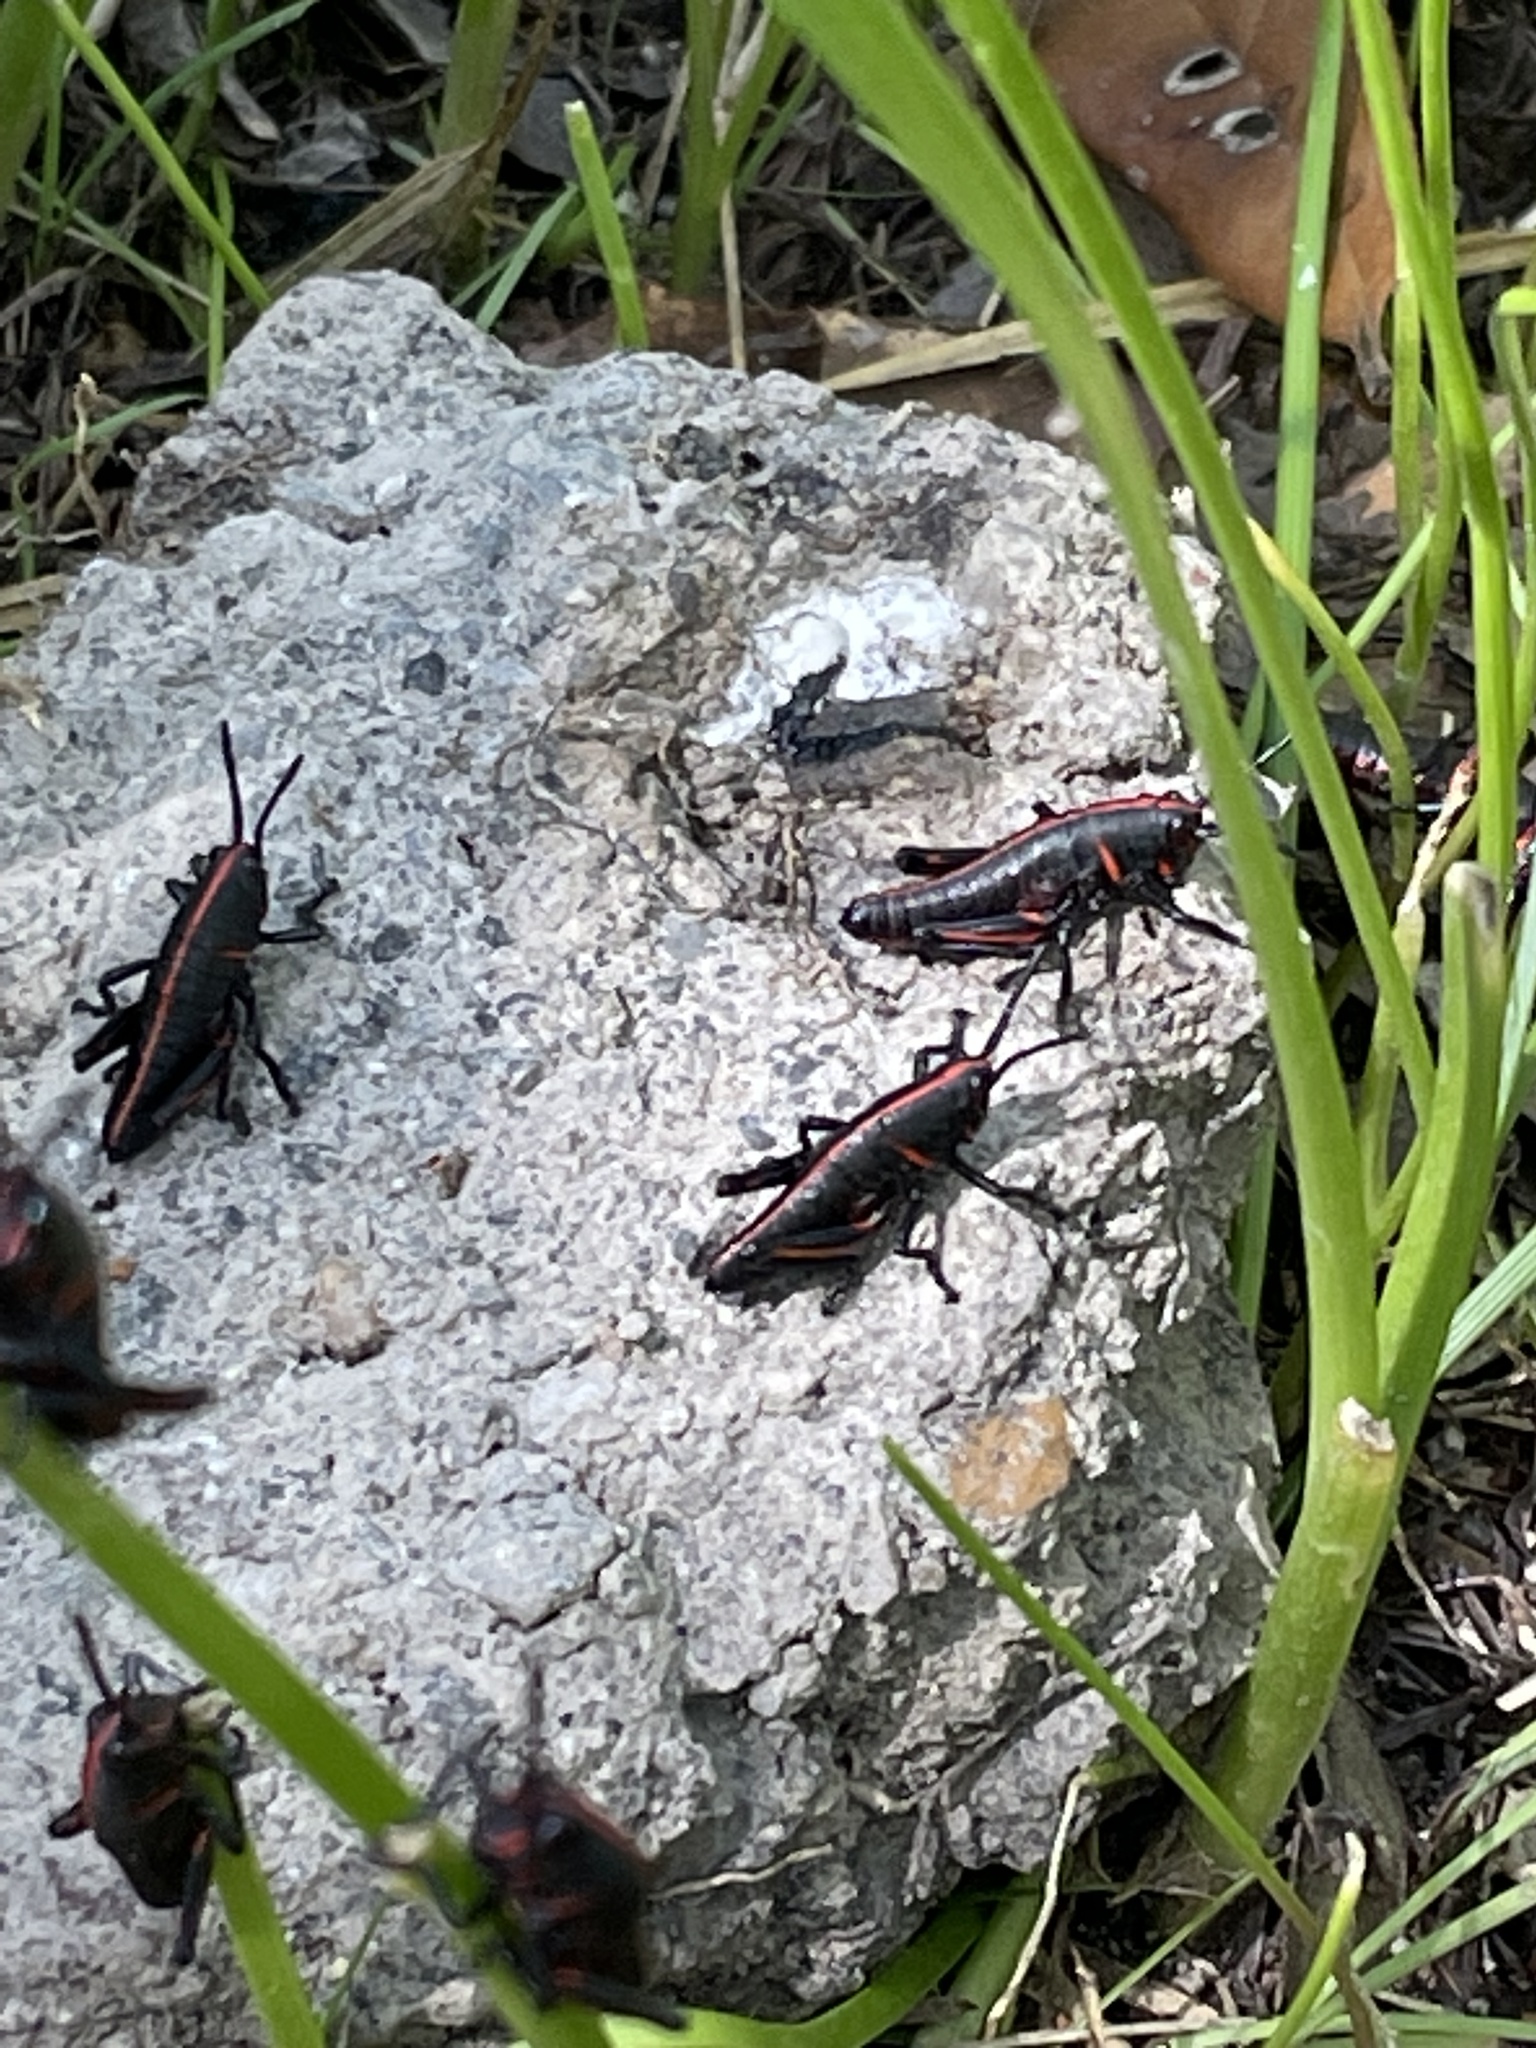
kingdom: Animalia
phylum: Arthropoda
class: Insecta
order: Orthoptera
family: Romaleidae
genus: Romalea
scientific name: Romalea microptera
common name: Eastern lubber grasshopper
